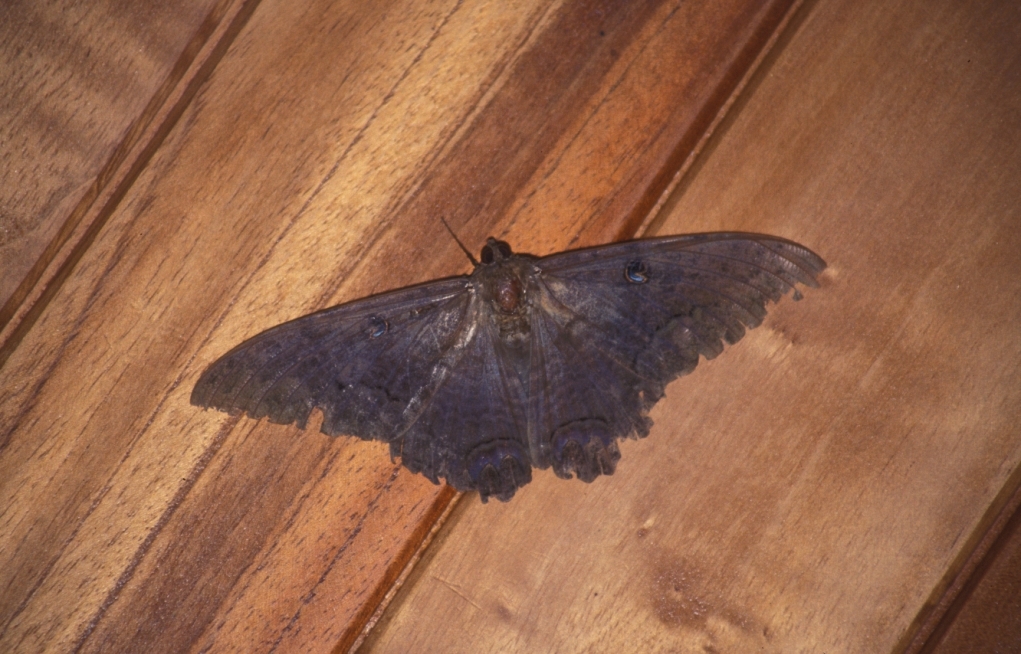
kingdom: Animalia
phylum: Arthropoda
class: Insecta
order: Lepidoptera
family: Erebidae
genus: Ascalapha
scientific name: Ascalapha odorata
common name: Black witch
